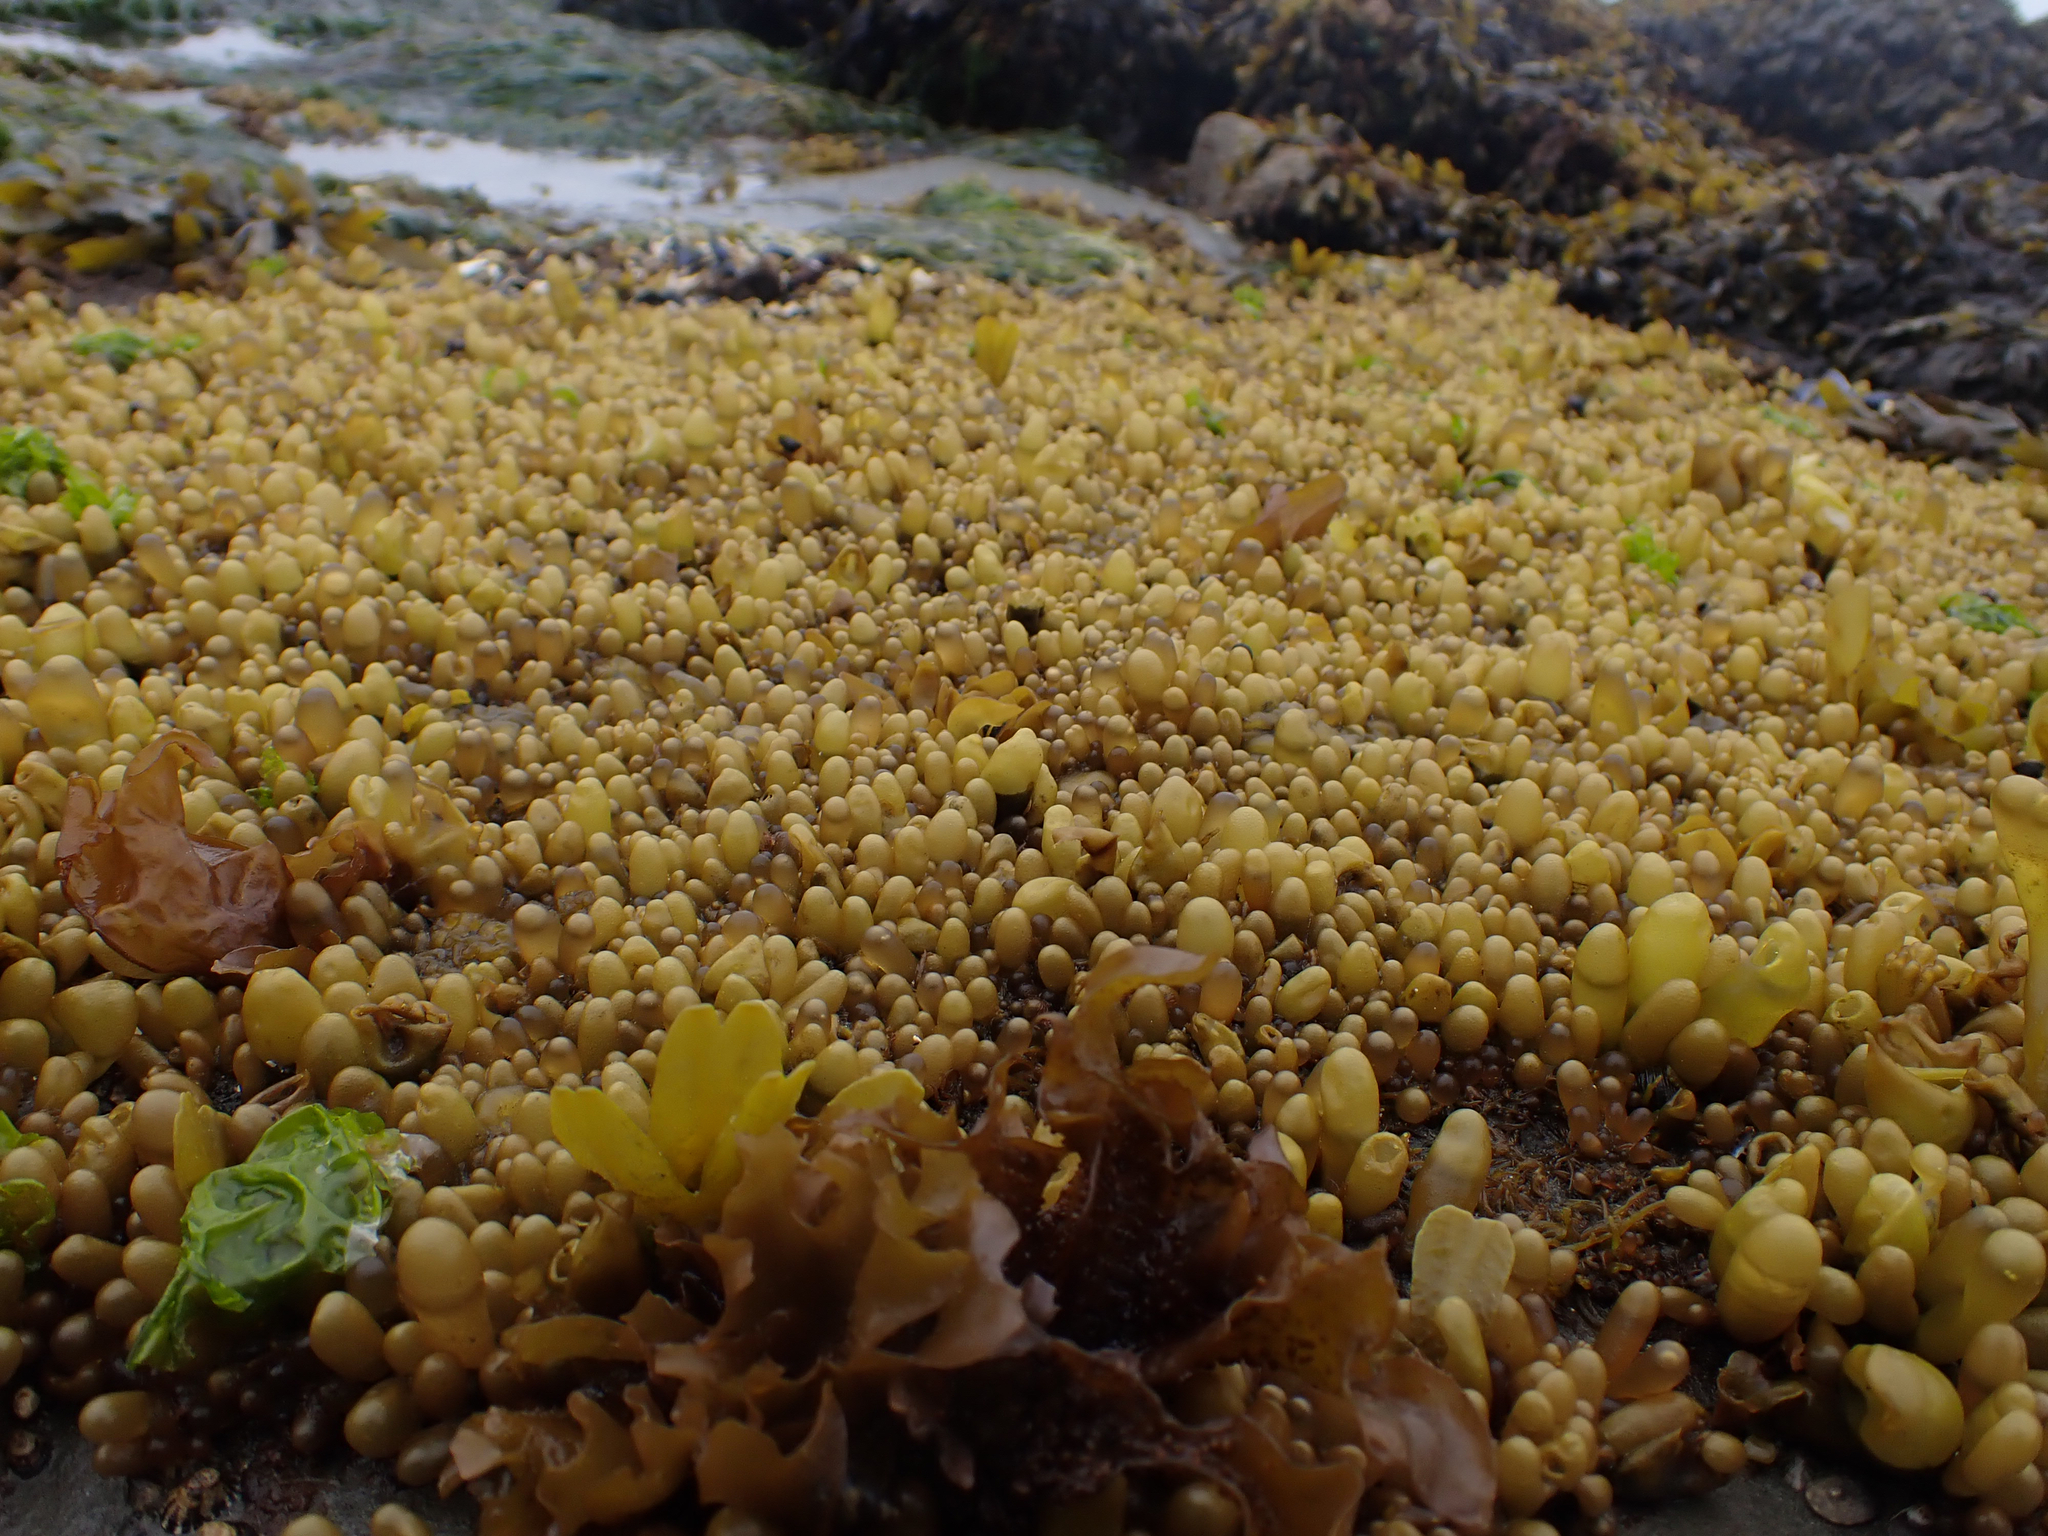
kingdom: Plantae
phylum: Rhodophyta
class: Florideophyceae
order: Palmariales
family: Palmariaceae
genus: Halosaccion
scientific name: Halosaccion glandiforme
